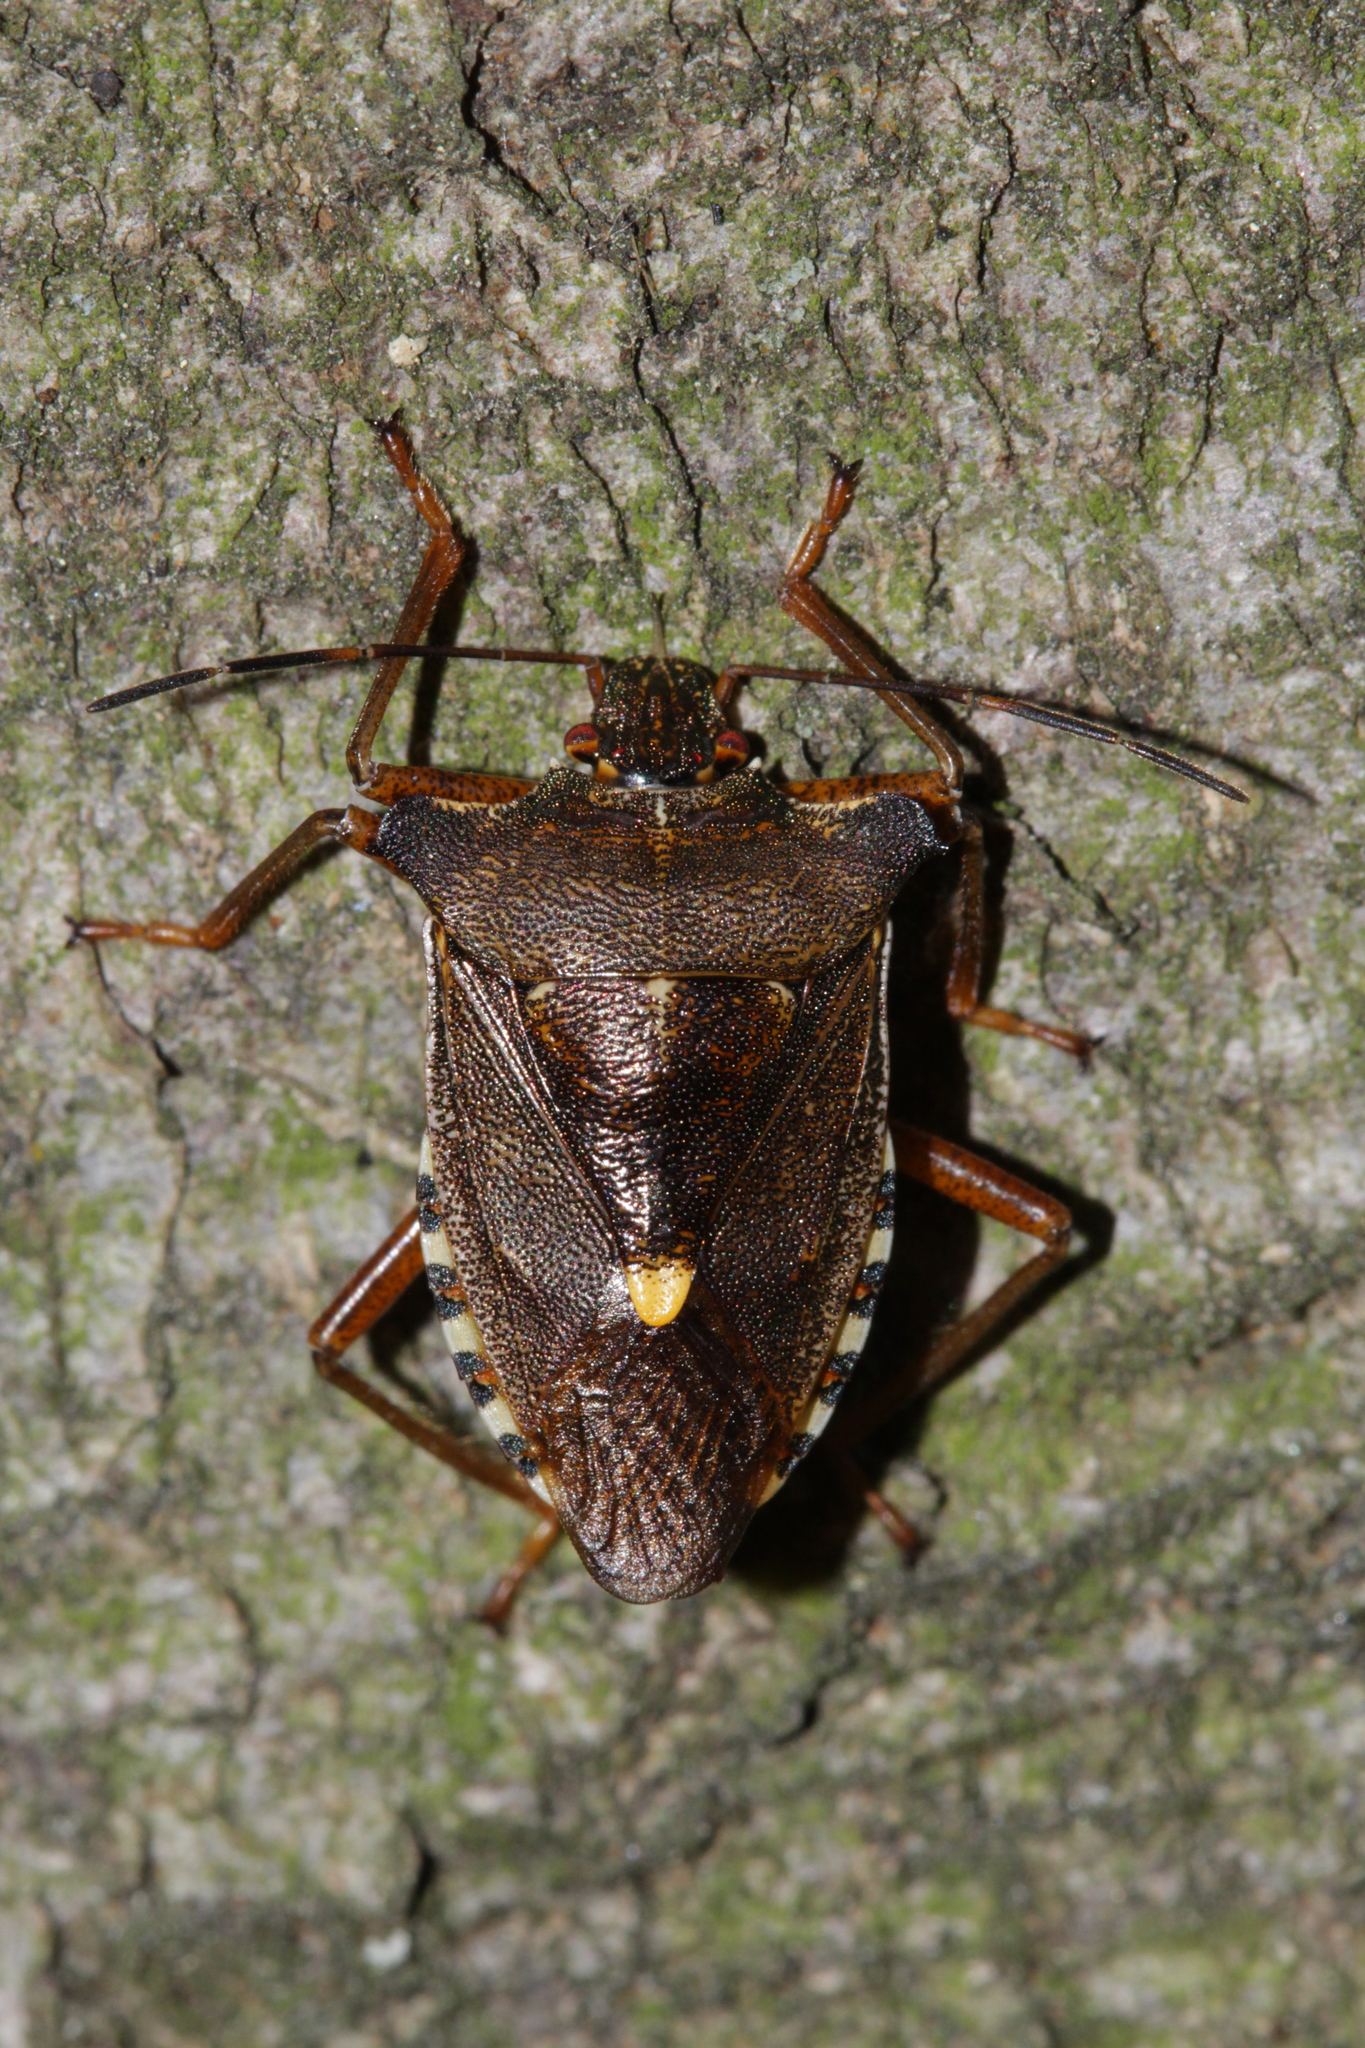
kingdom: Animalia
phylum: Arthropoda
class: Insecta
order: Hemiptera
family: Pentatomidae
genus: Pentatoma
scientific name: Pentatoma rufipes
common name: Forest bug
